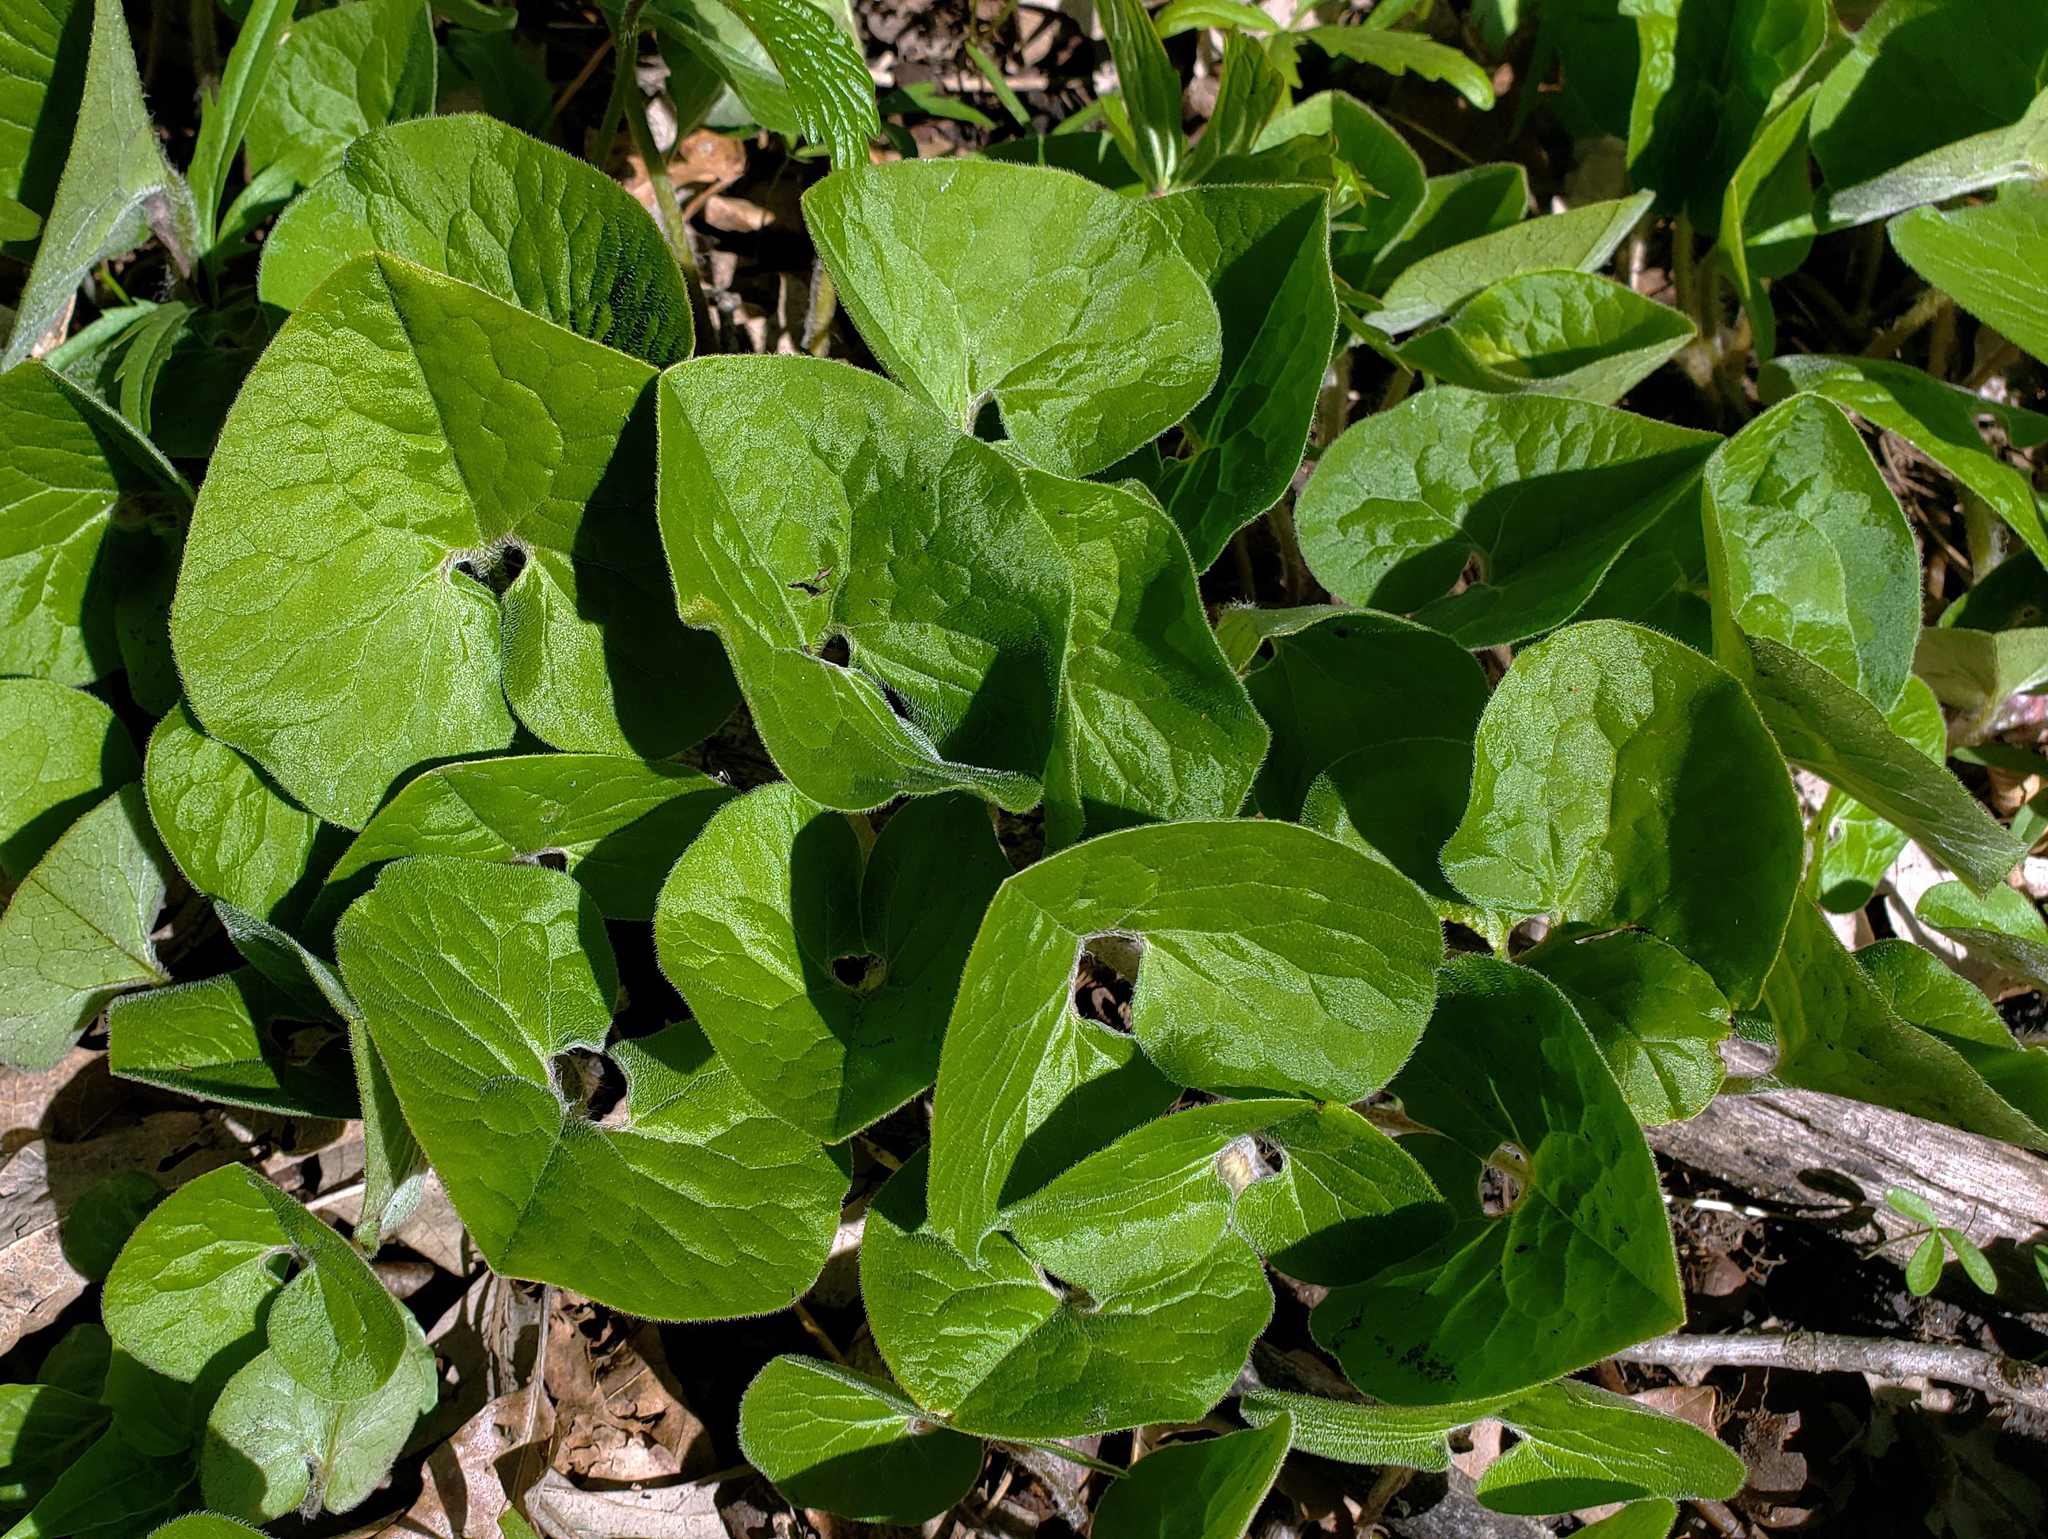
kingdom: Plantae
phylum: Tracheophyta
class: Magnoliopsida
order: Piperales
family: Aristolochiaceae
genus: Asarum
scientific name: Asarum canadense
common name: Wild ginger
